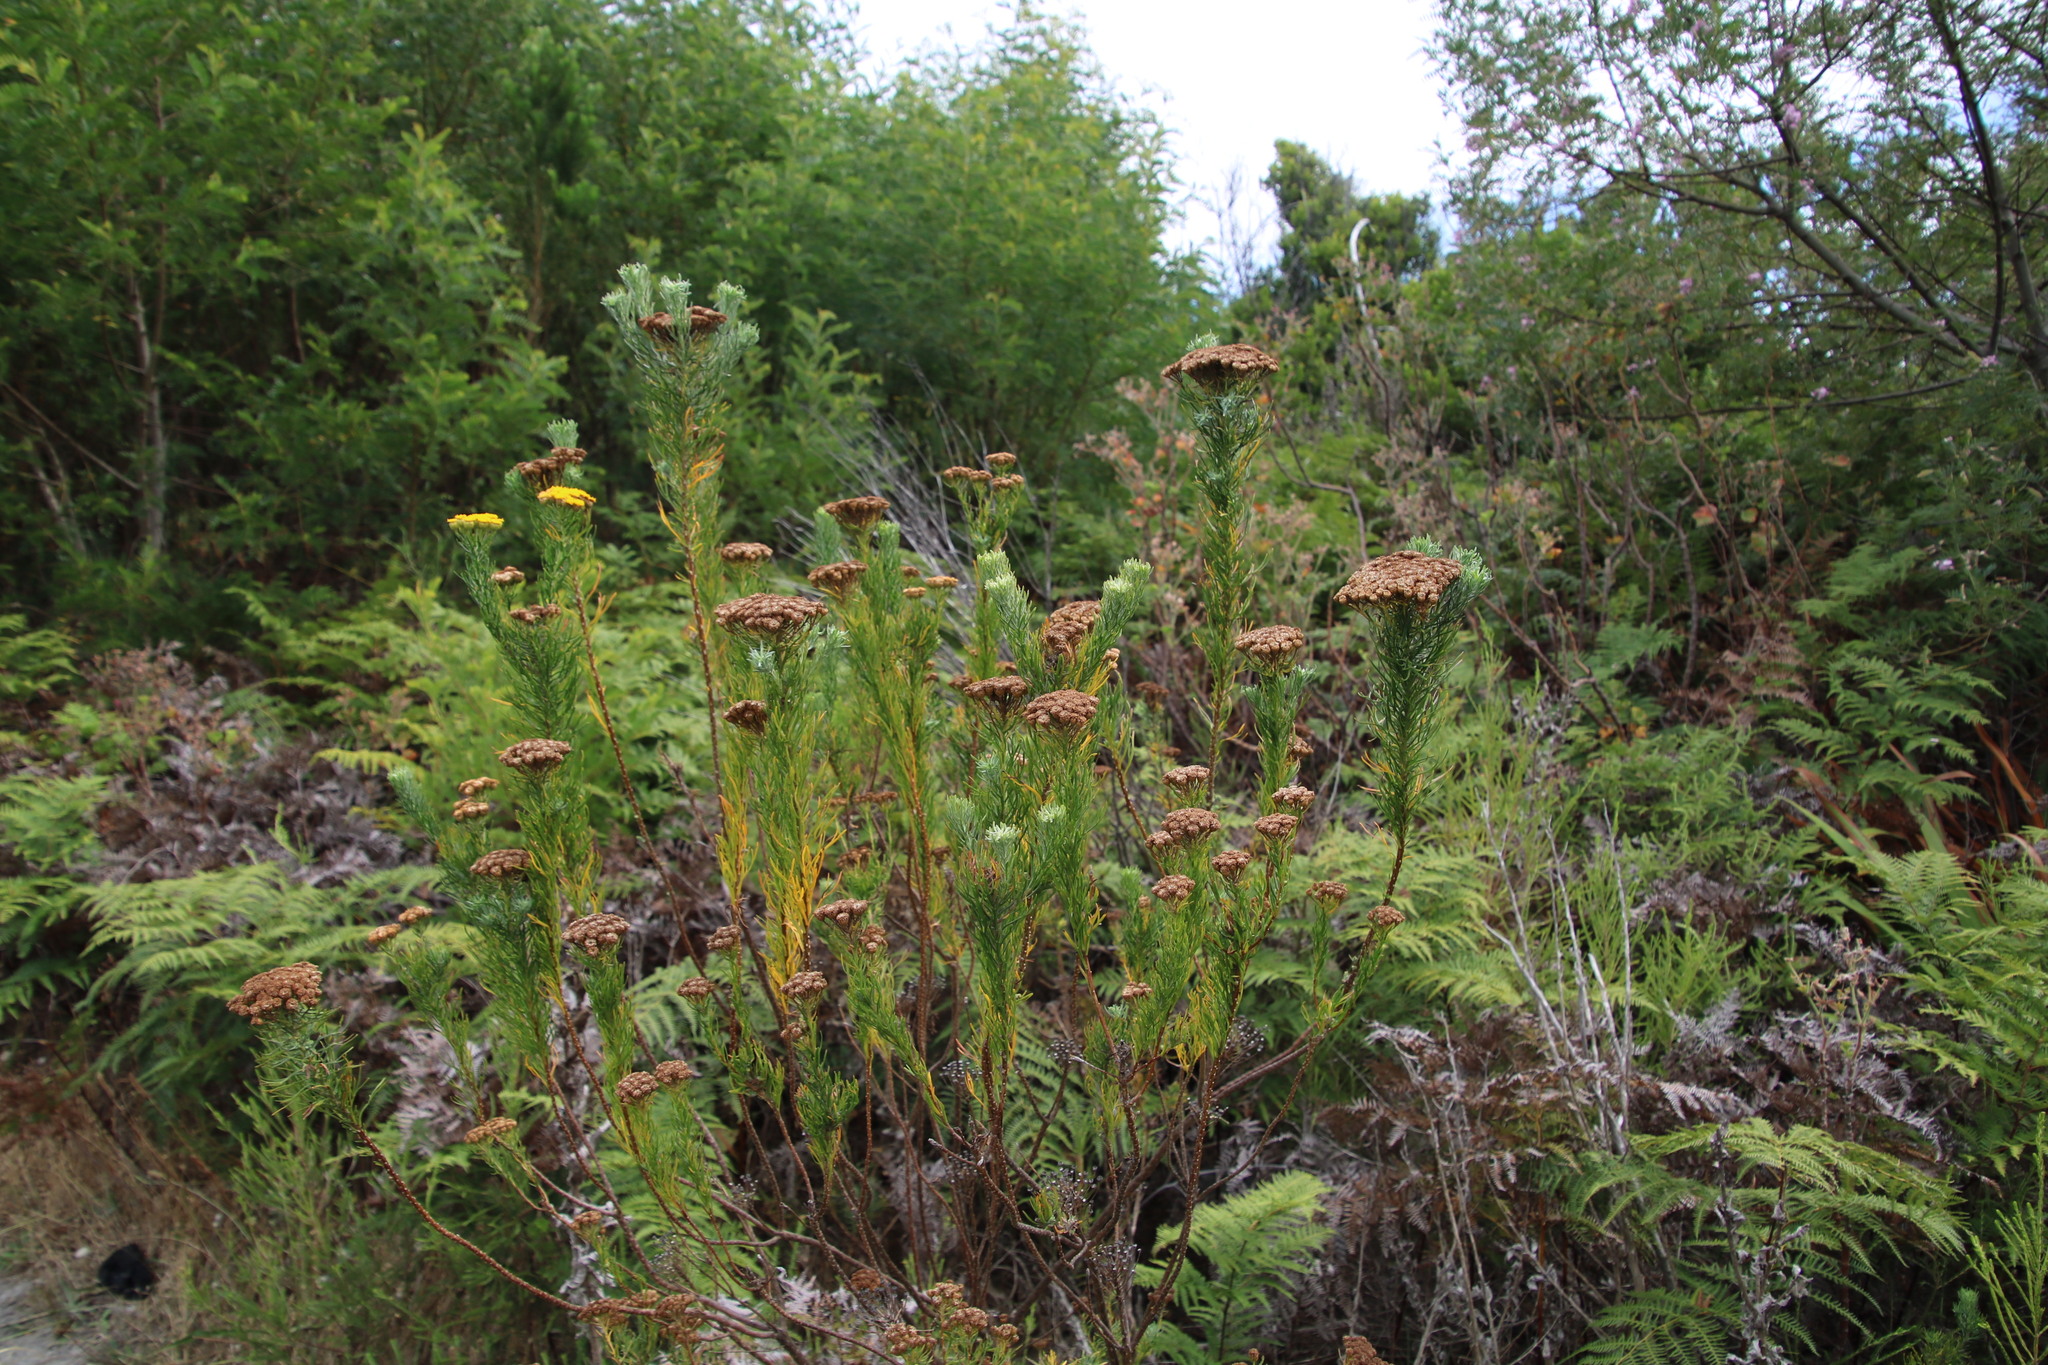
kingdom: Plantae
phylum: Tracheophyta
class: Magnoliopsida
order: Asterales
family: Asteraceae
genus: Athanasia
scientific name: Athanasia crithmifolia
